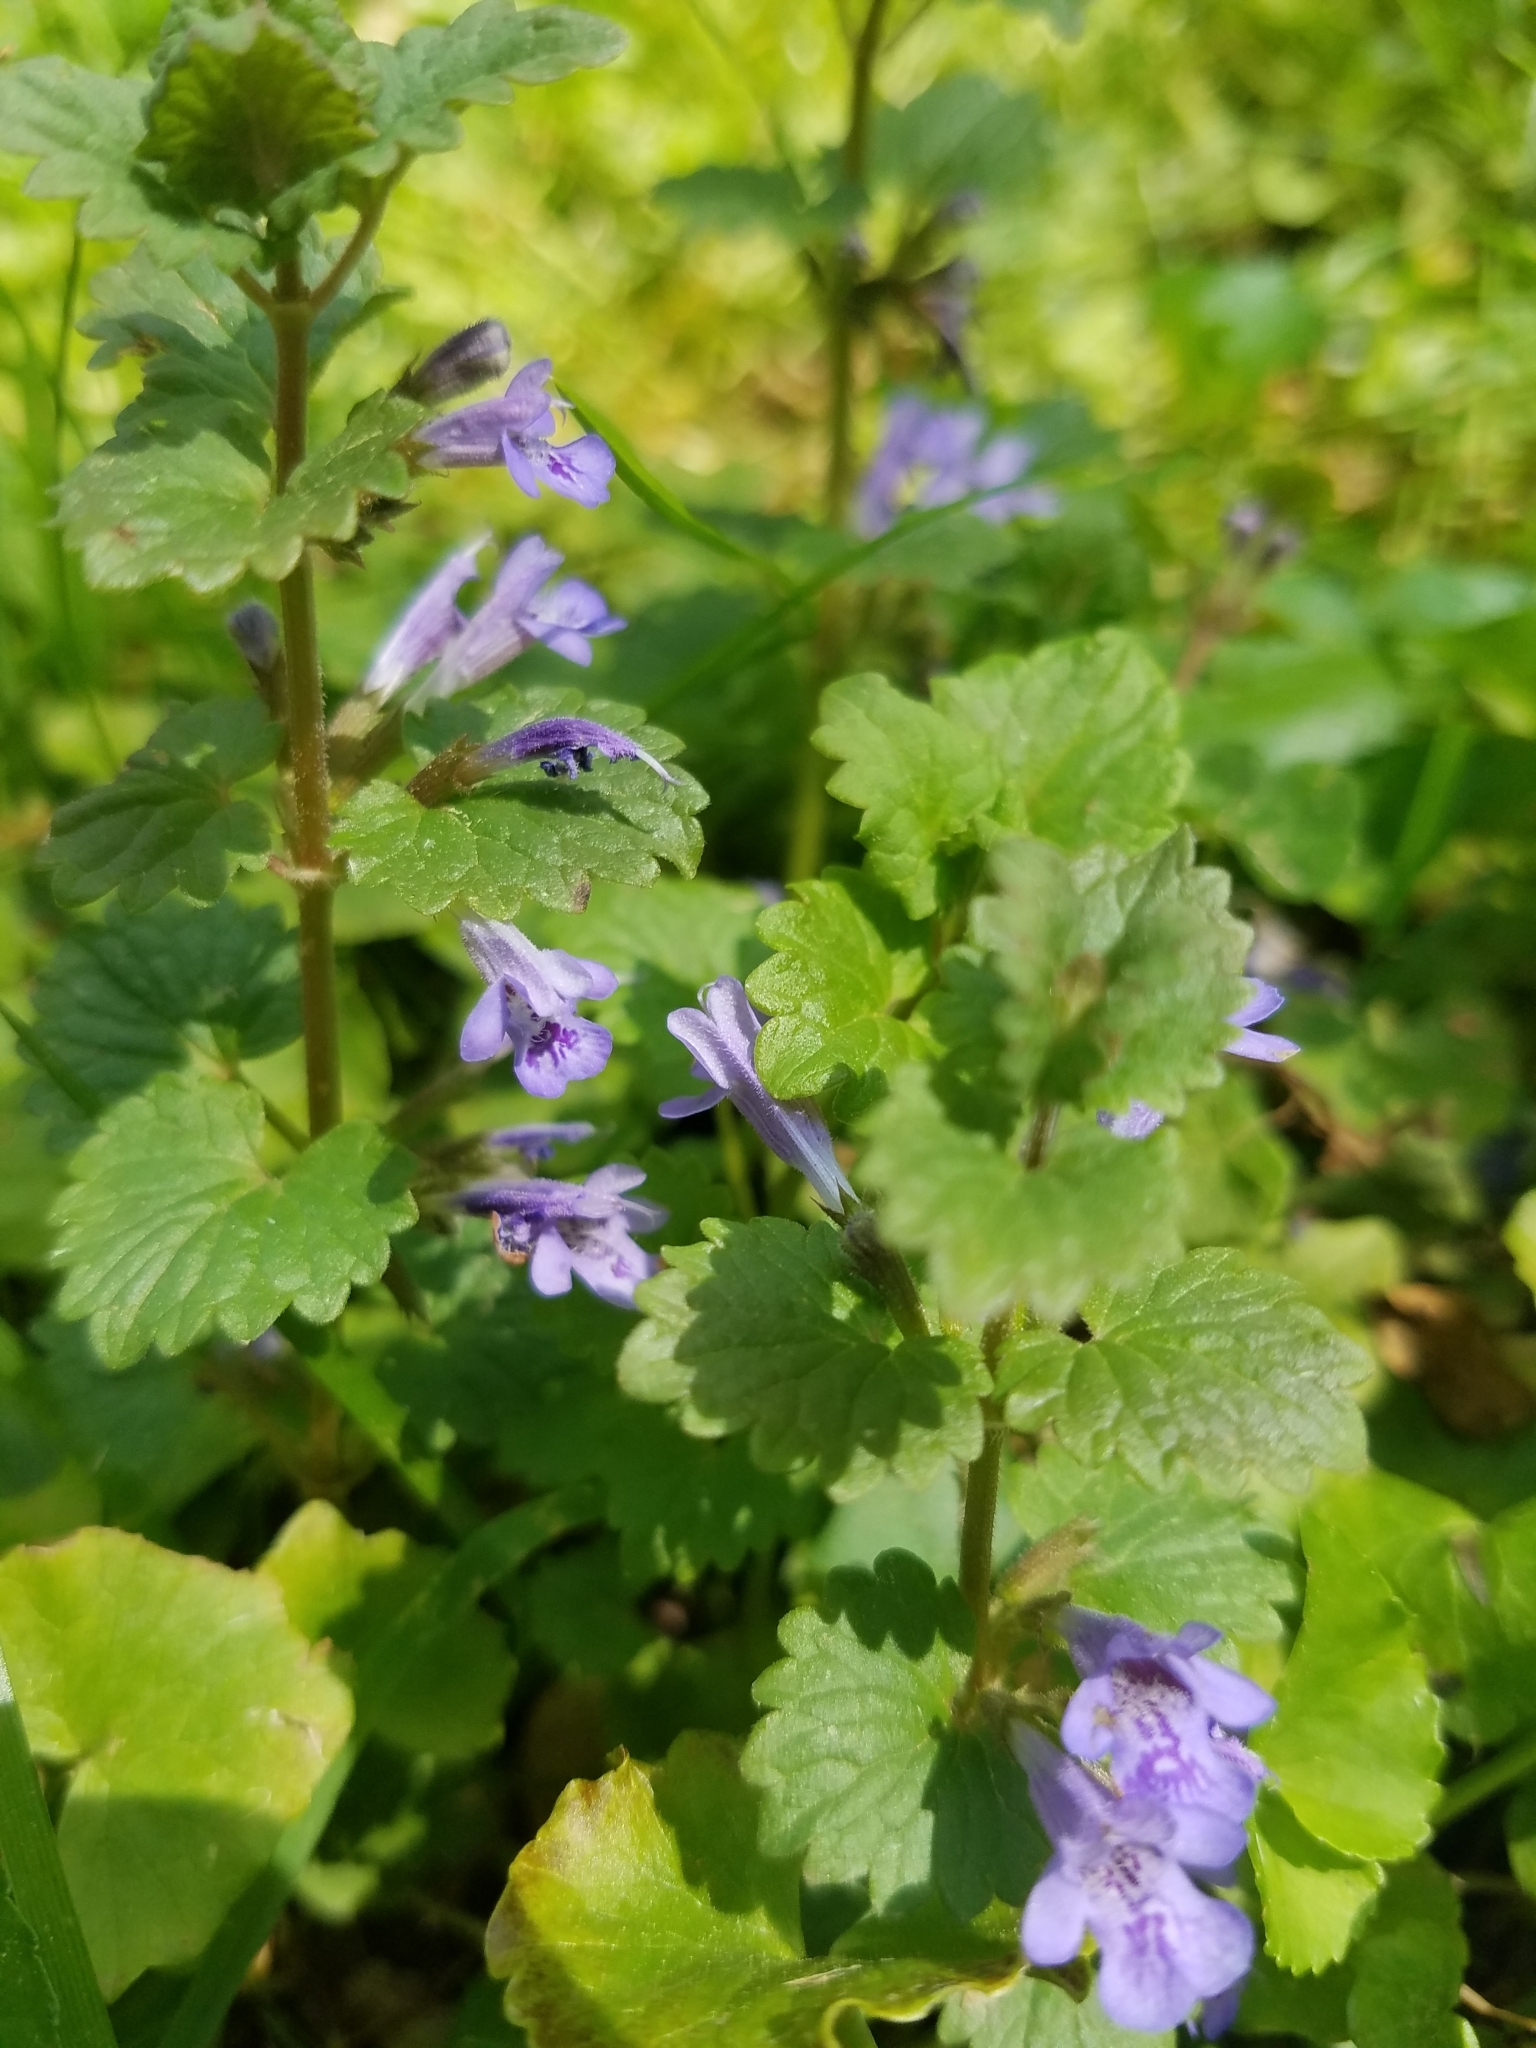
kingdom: Plantae
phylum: Tracheophyta
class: Magnoliopsida
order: Lamiales
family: Lamiaceae
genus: Glechoma
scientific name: Glechoma hederacea
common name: Ground ivy
